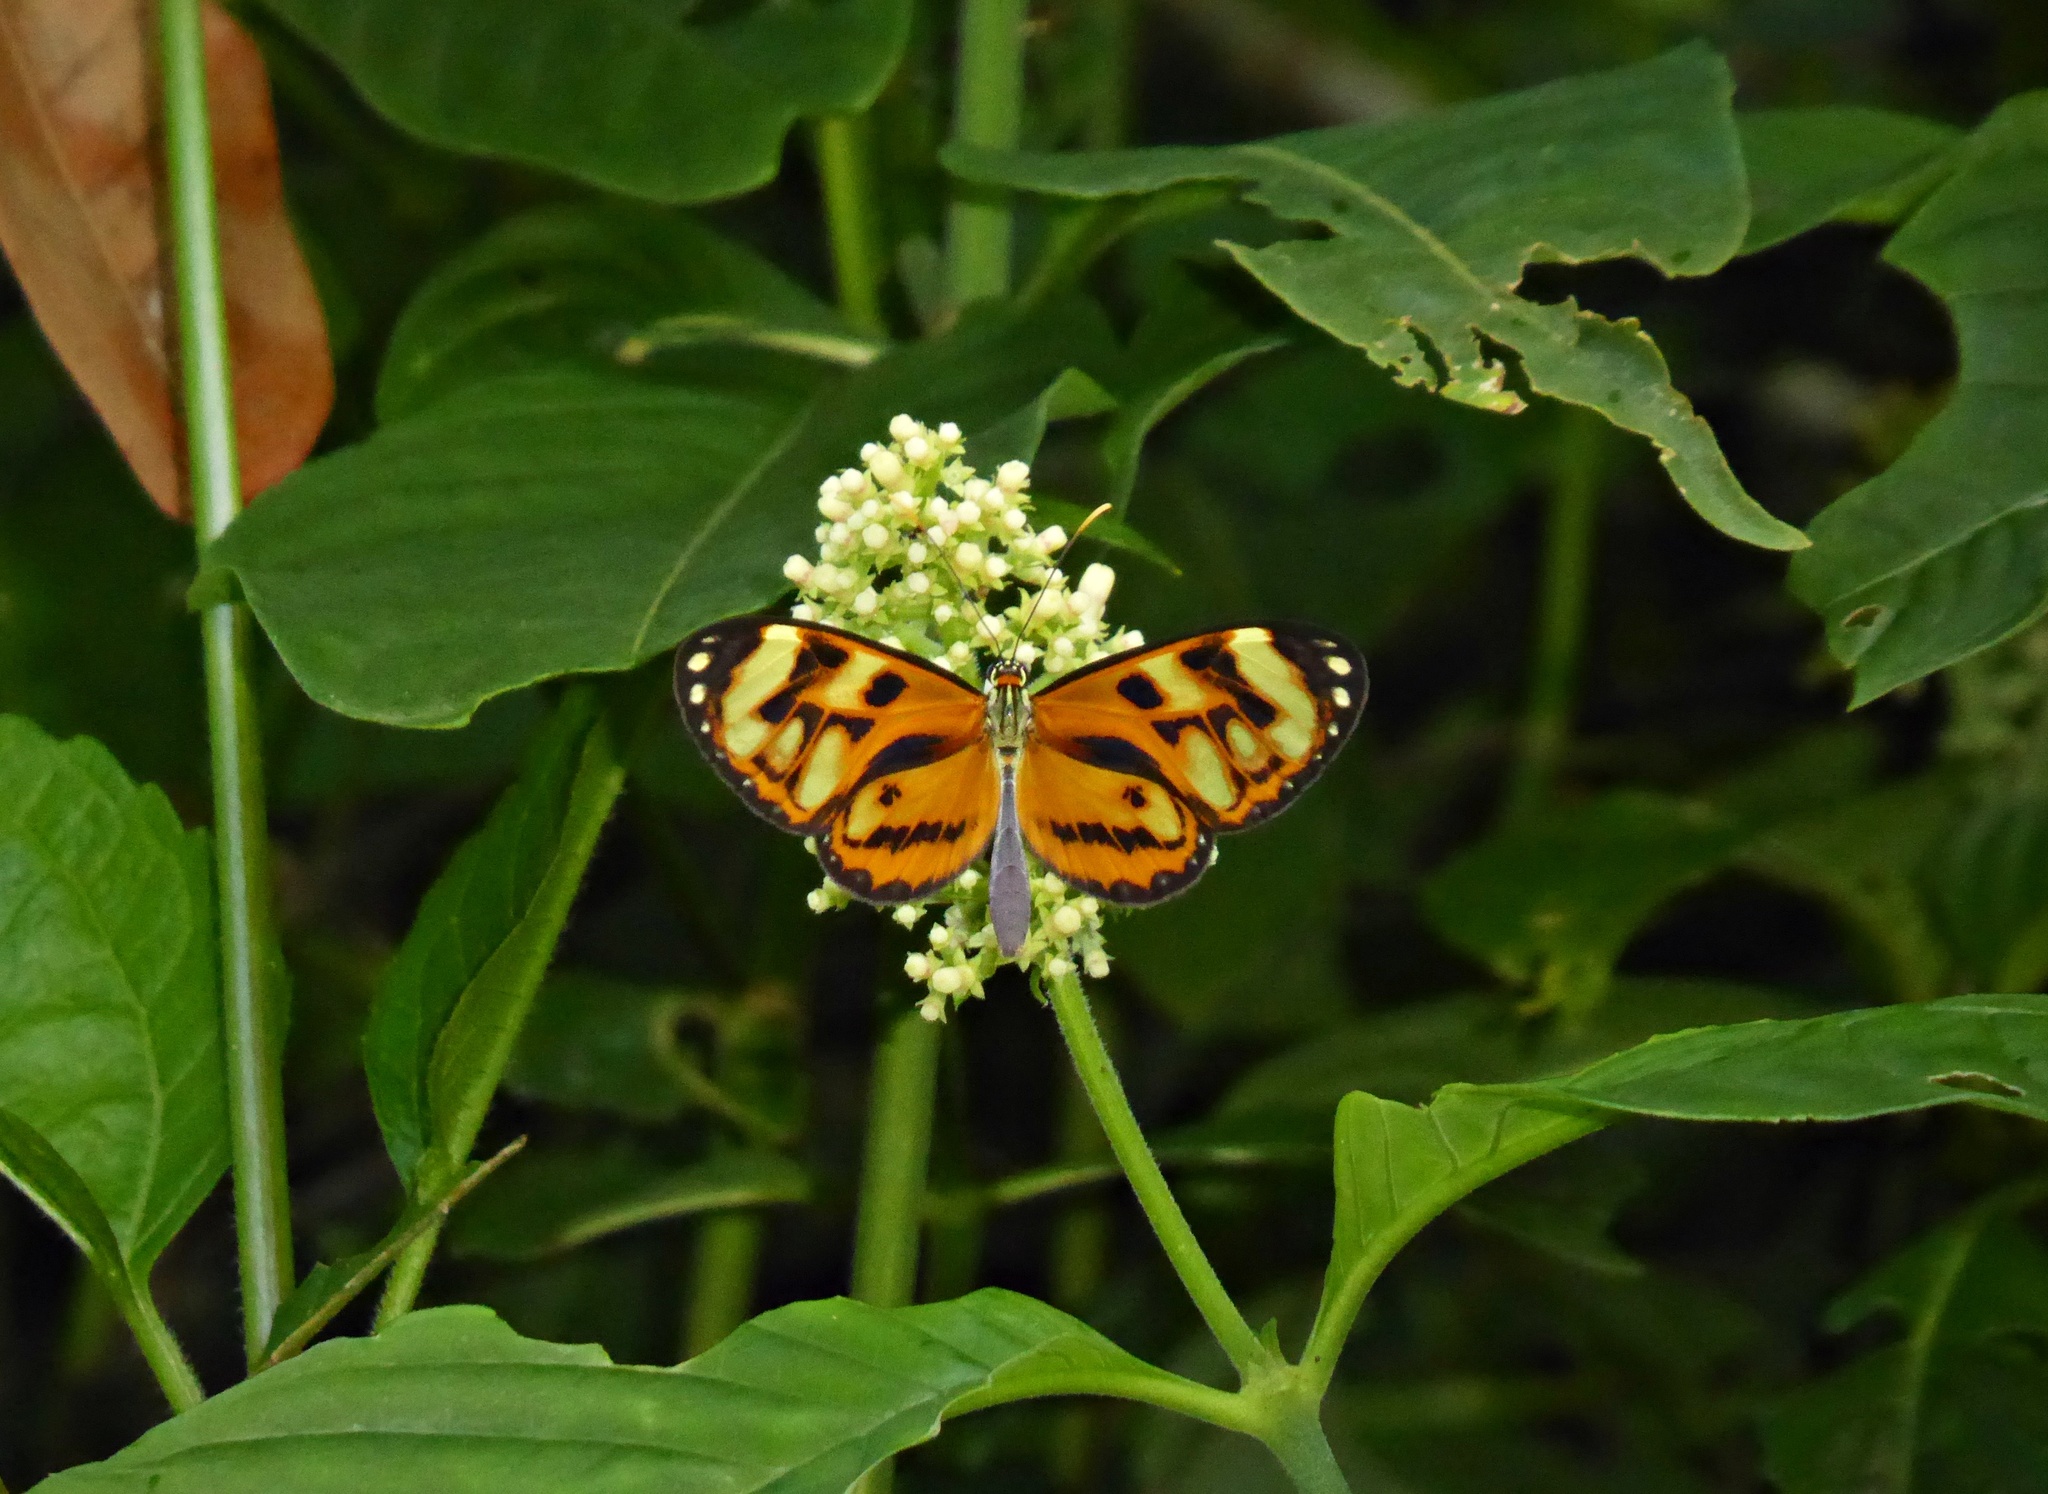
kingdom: Animalia
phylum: Arthropoda
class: Insecta
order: Lepidoptera
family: Nymphalidae
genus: Ithomia
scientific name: Ithomia iphianassa
